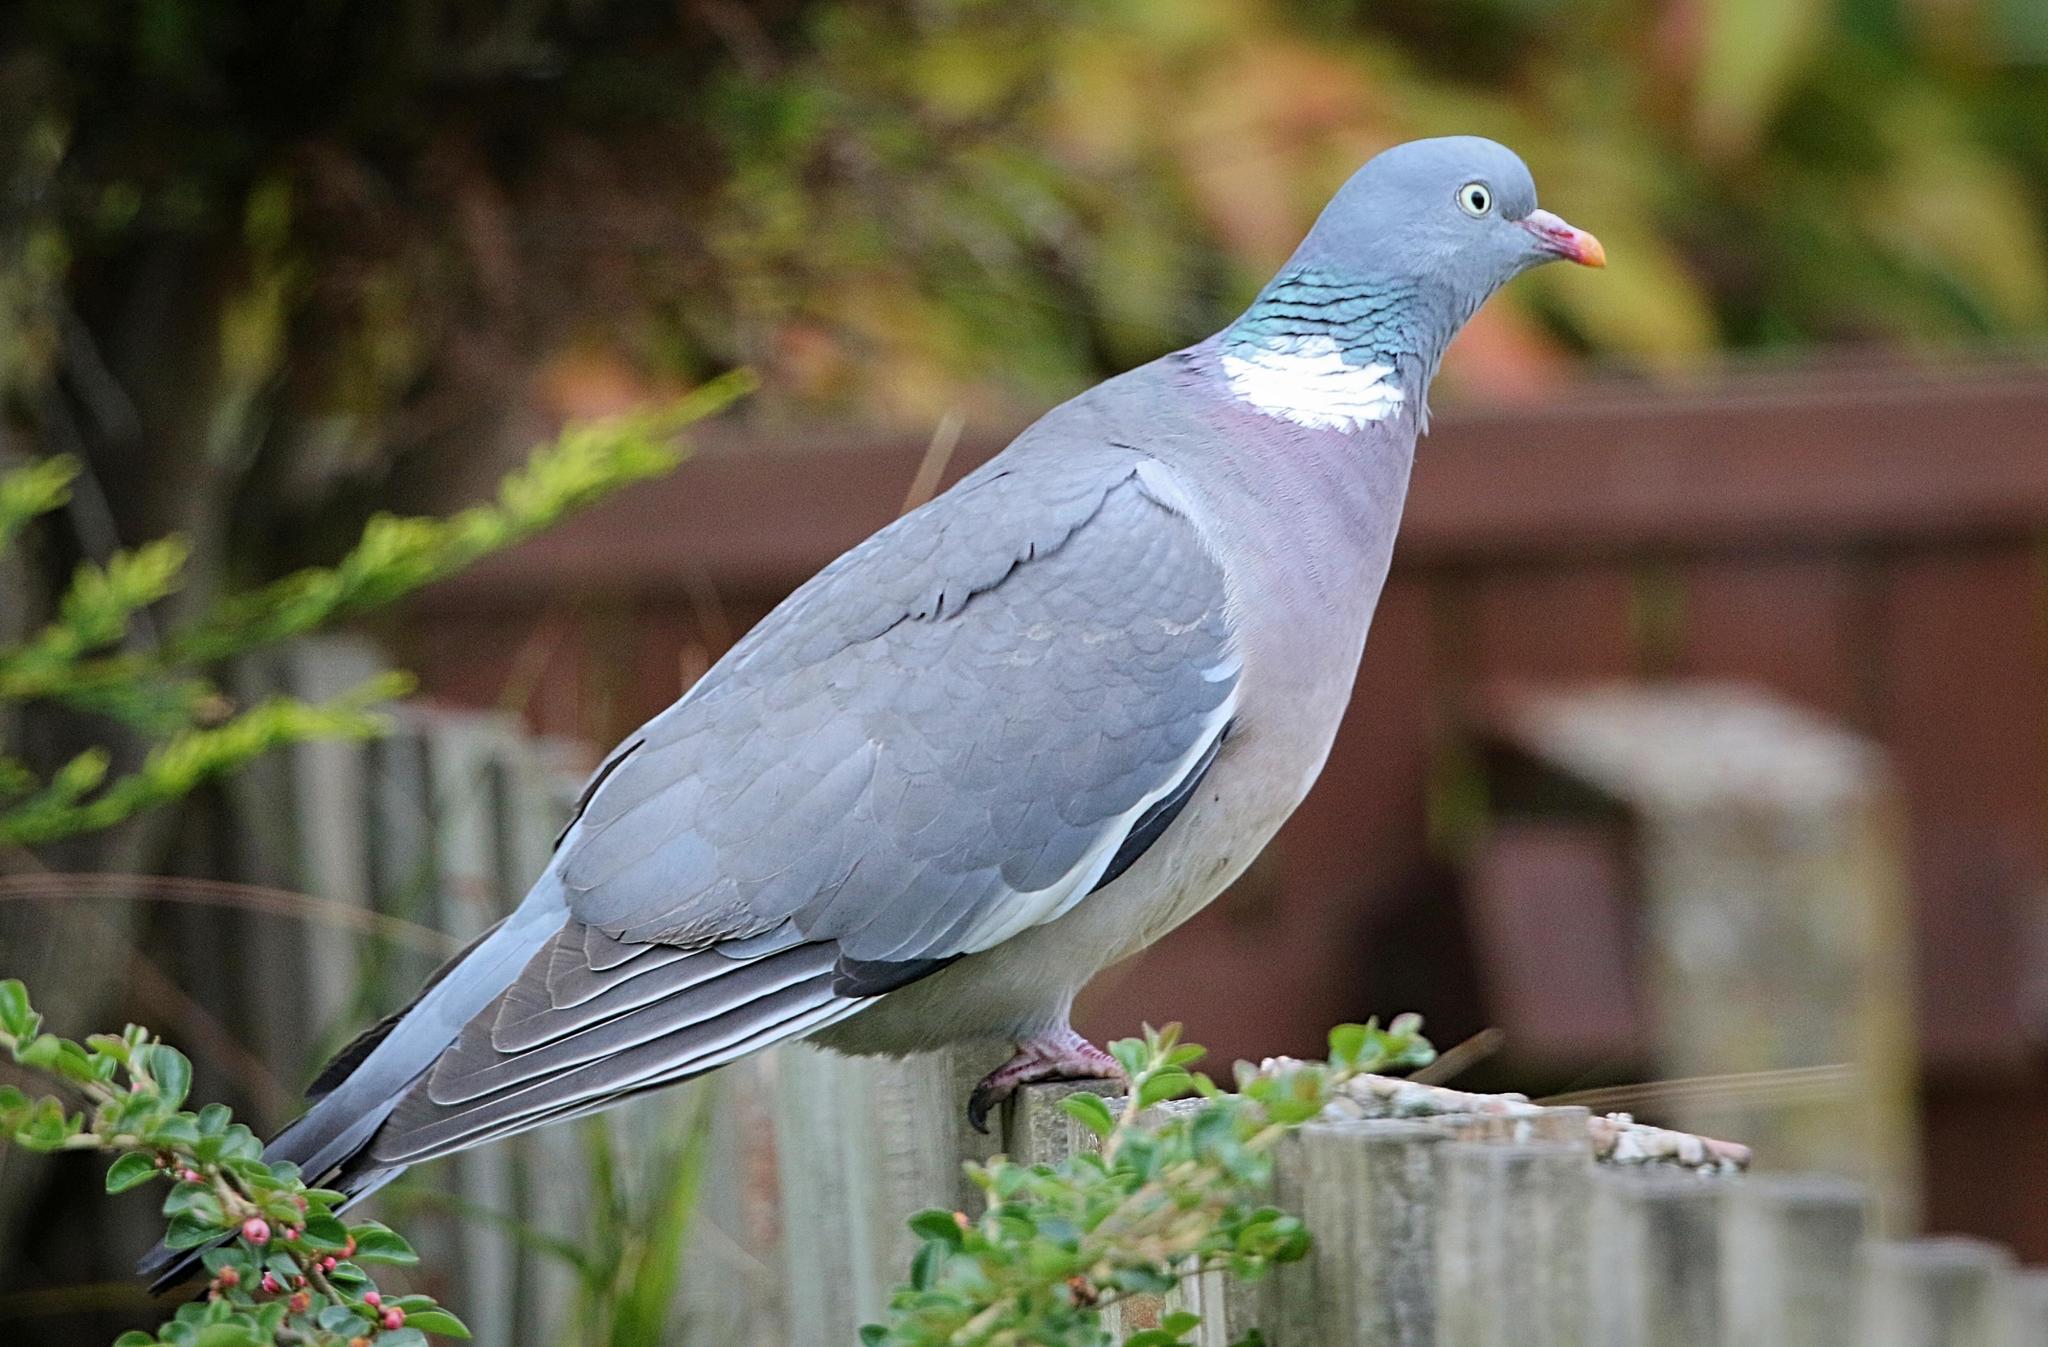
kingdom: Animalia
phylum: Chordata
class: Aves
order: Columbiformes
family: Columbidae
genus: Columba
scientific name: Columba palumbus
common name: Common wood pigeon
